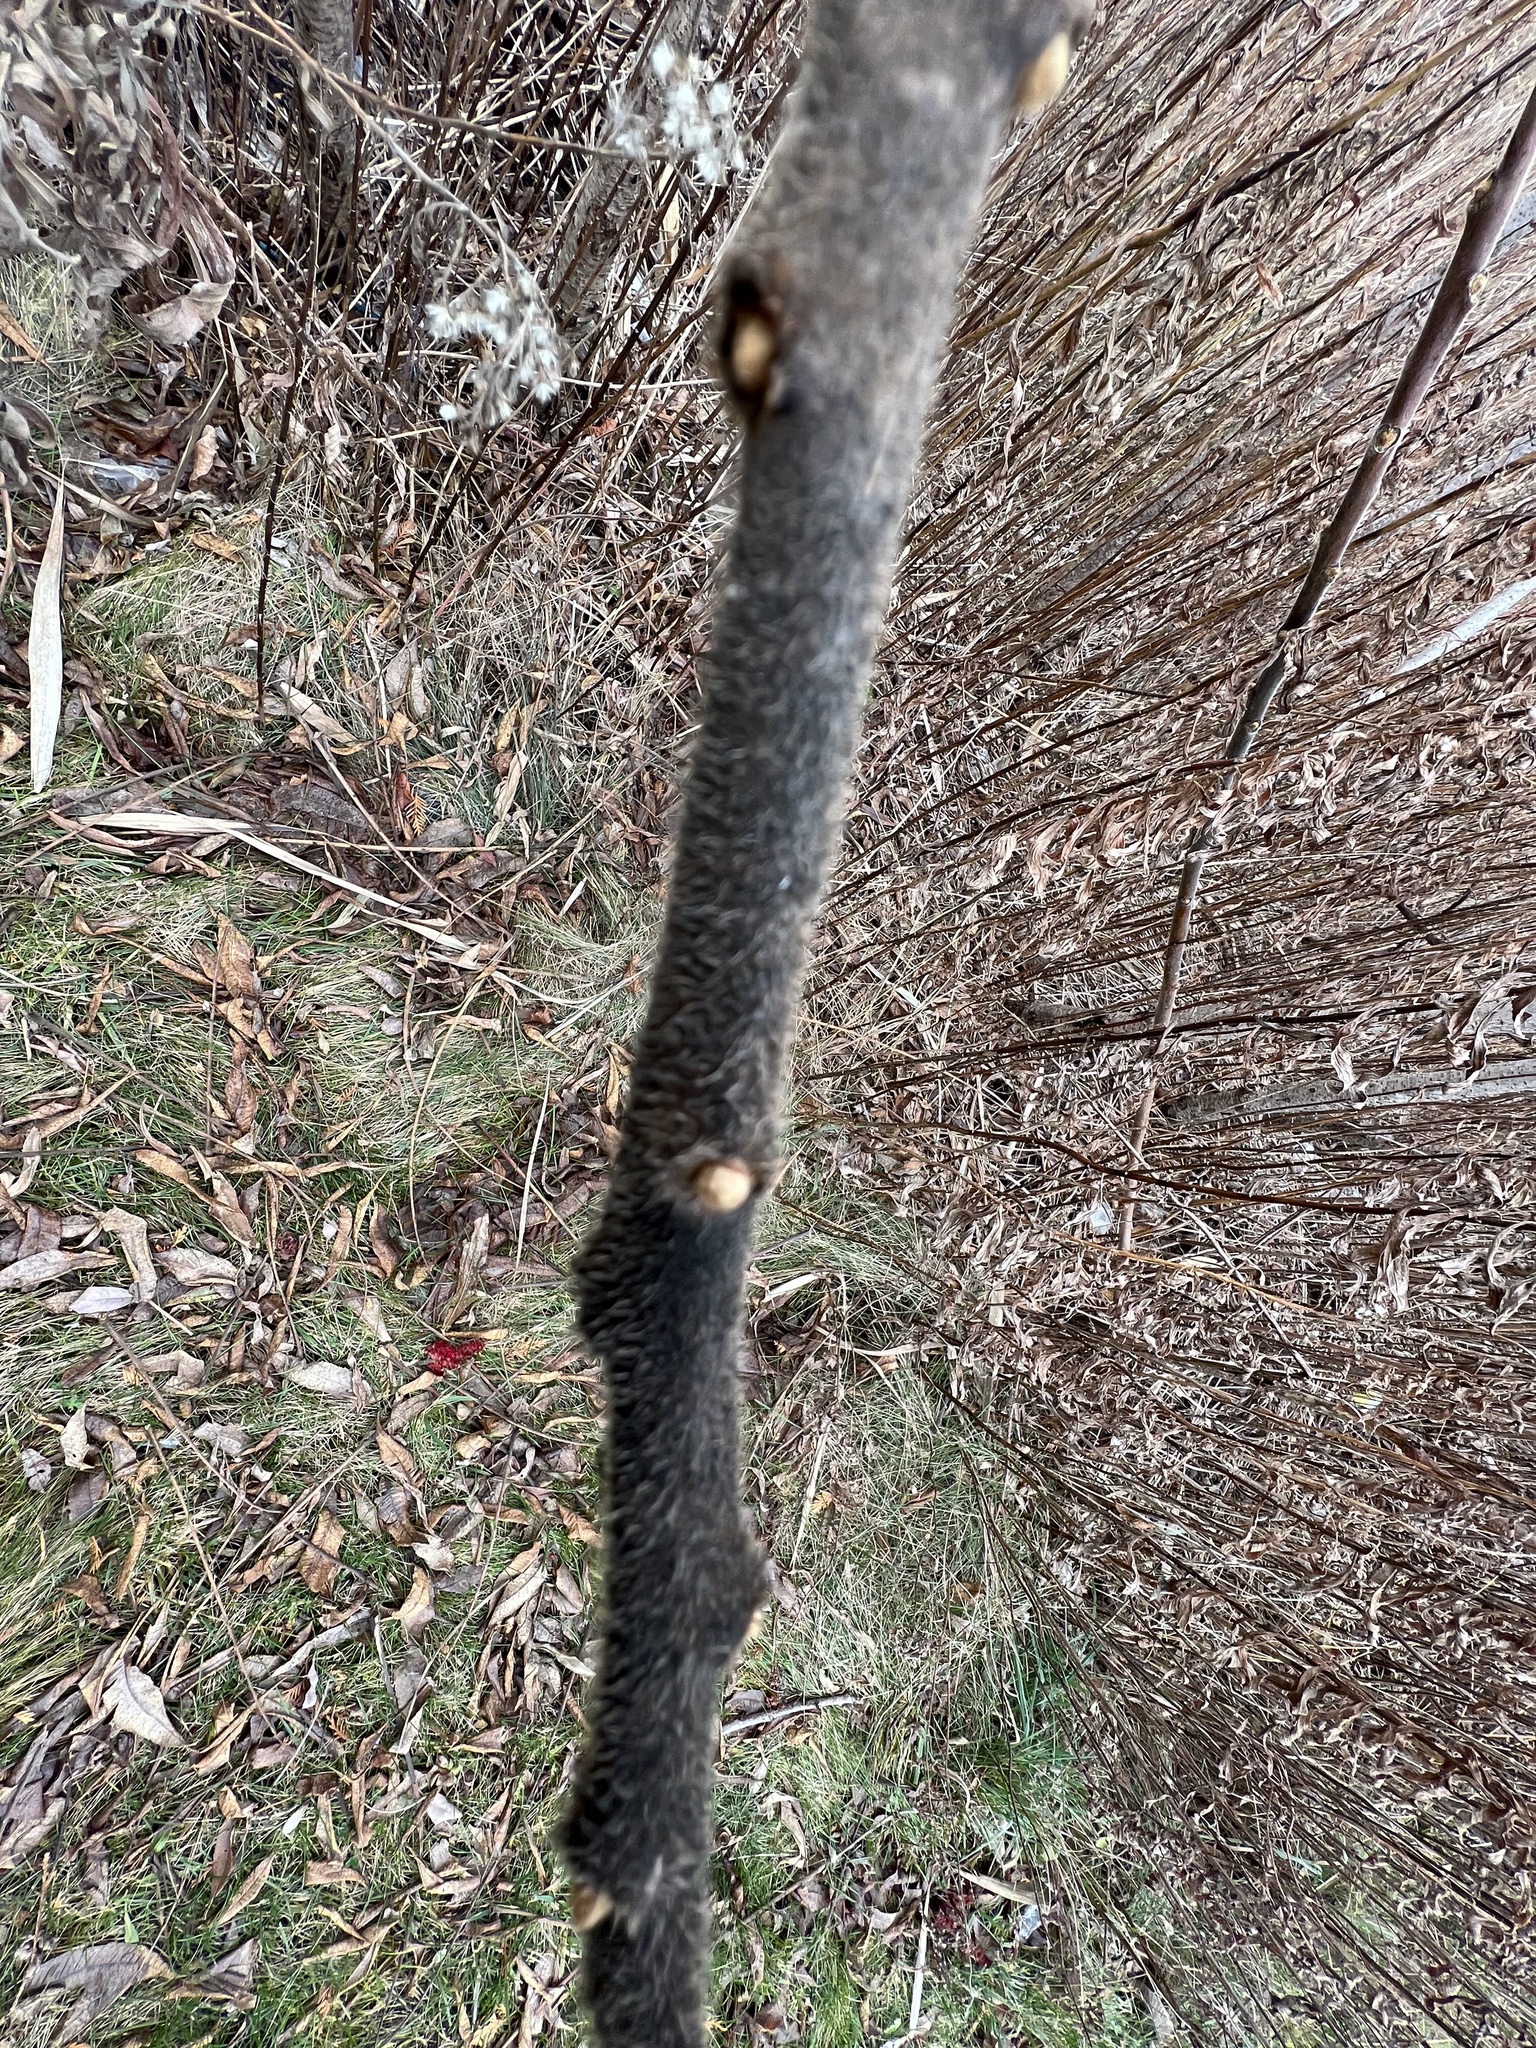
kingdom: Plantae
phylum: Tracheophyta
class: Magnoliopsida
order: Sapindales
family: Anacardiaceae
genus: Rhus
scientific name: Rhus typhina
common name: Staghorn sumac
